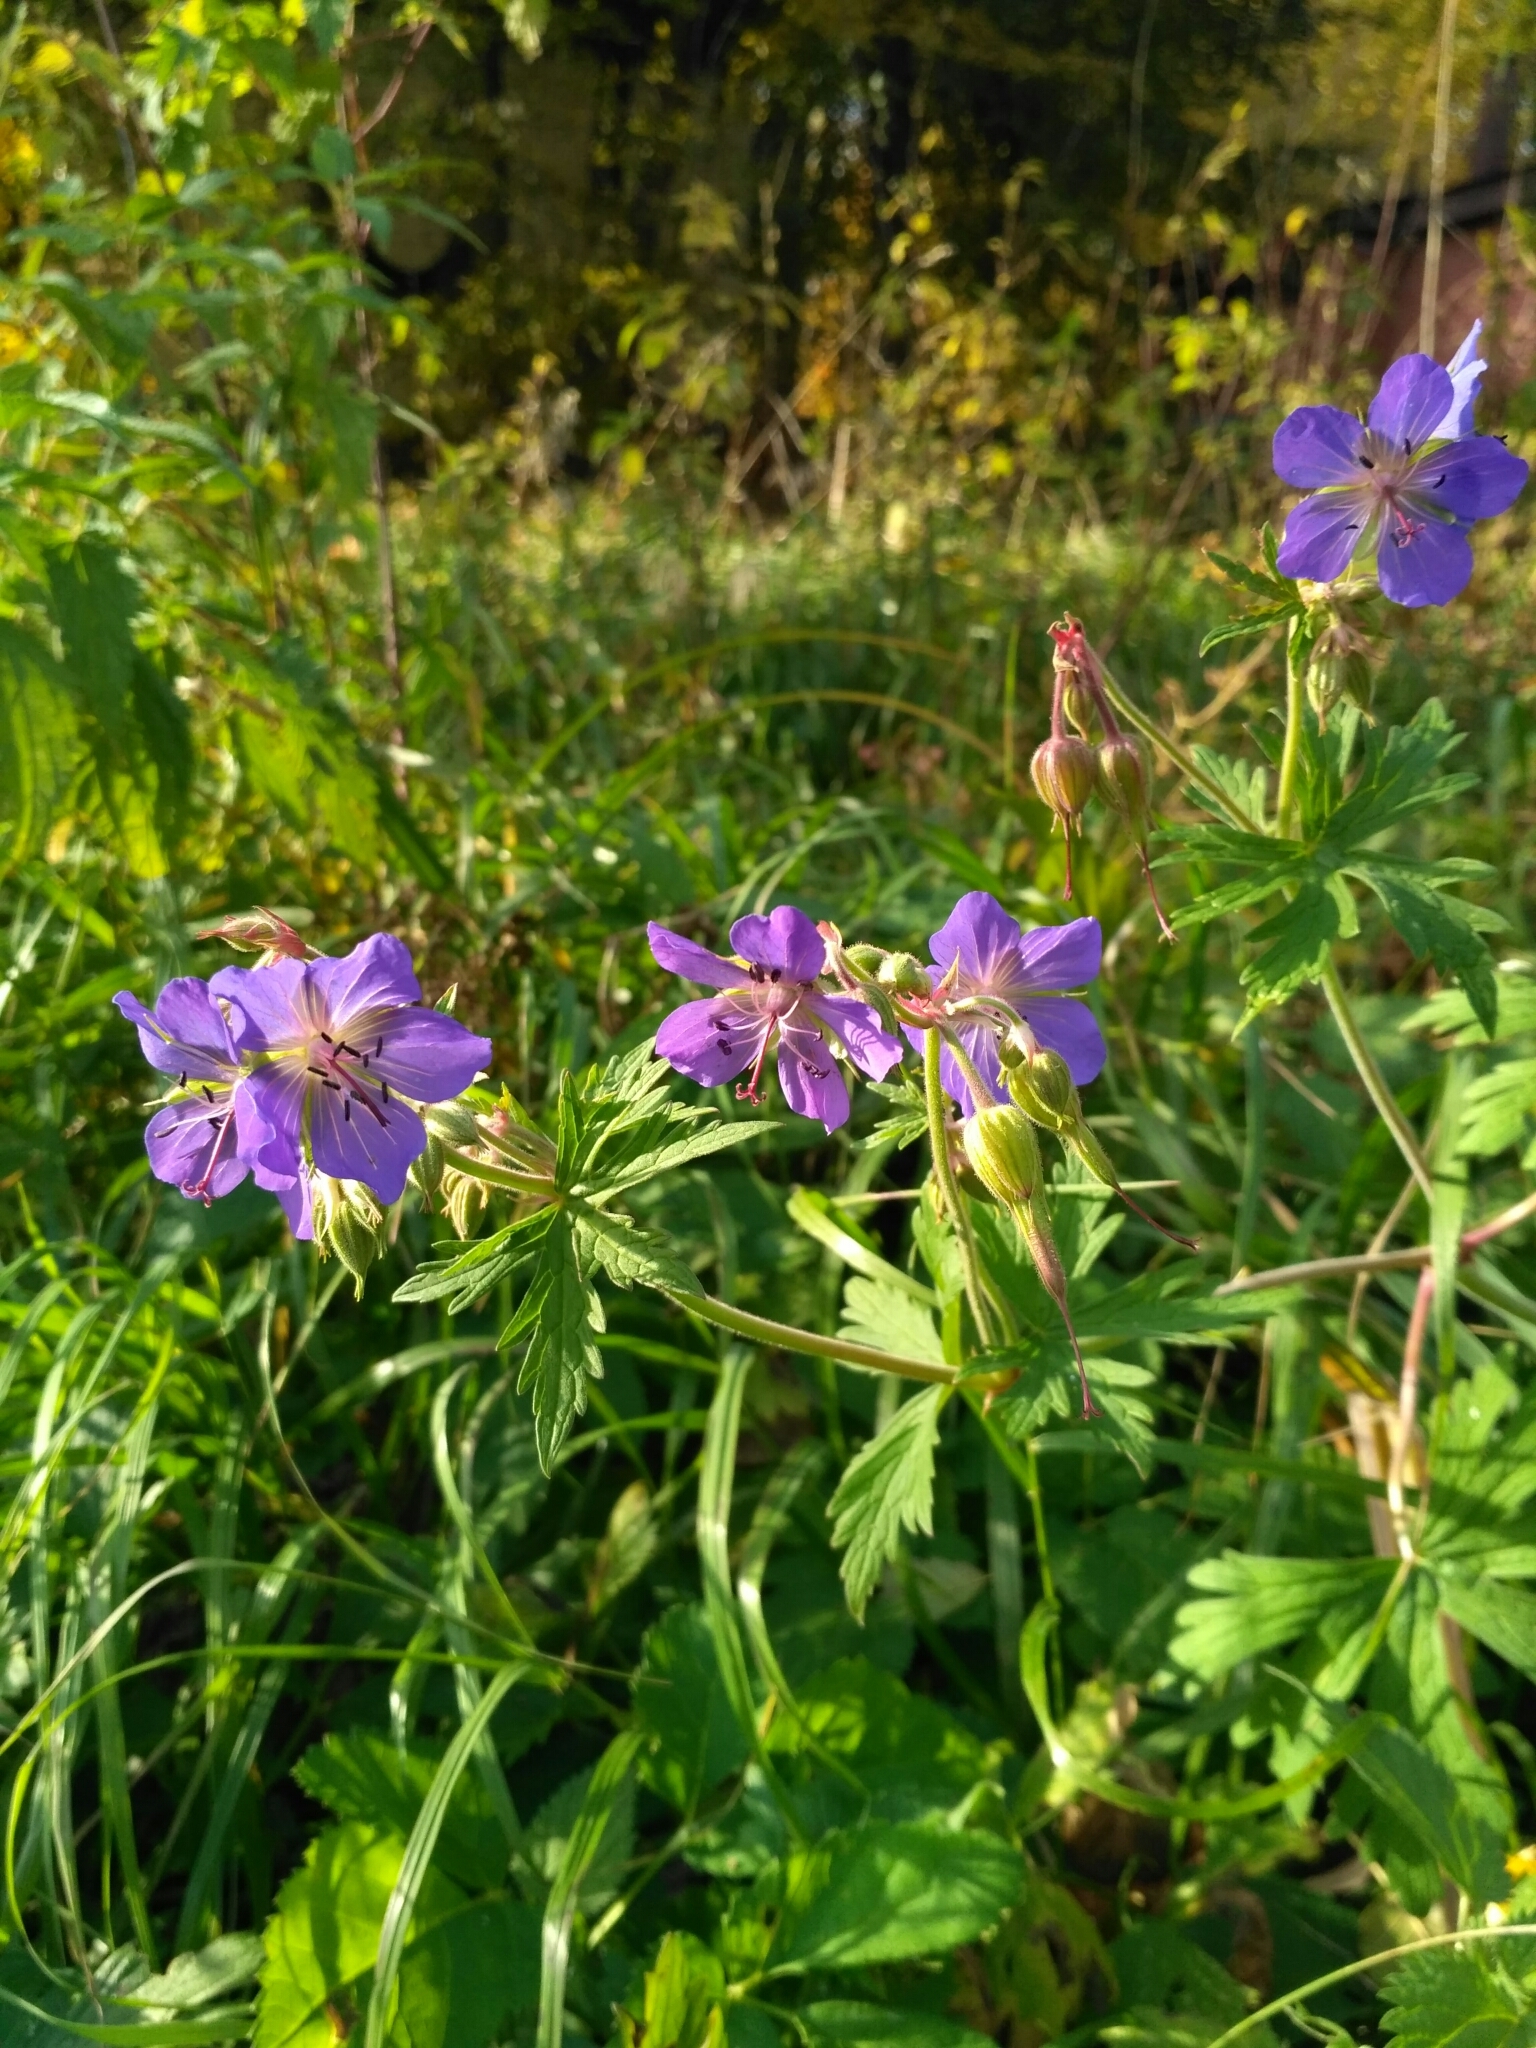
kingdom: Plantae
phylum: Tracheophyta
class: Magnoliopsida
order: Geraniales
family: Geraniaceae
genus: Geranium
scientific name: Geranium pratense
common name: Meadow crane's-bill
